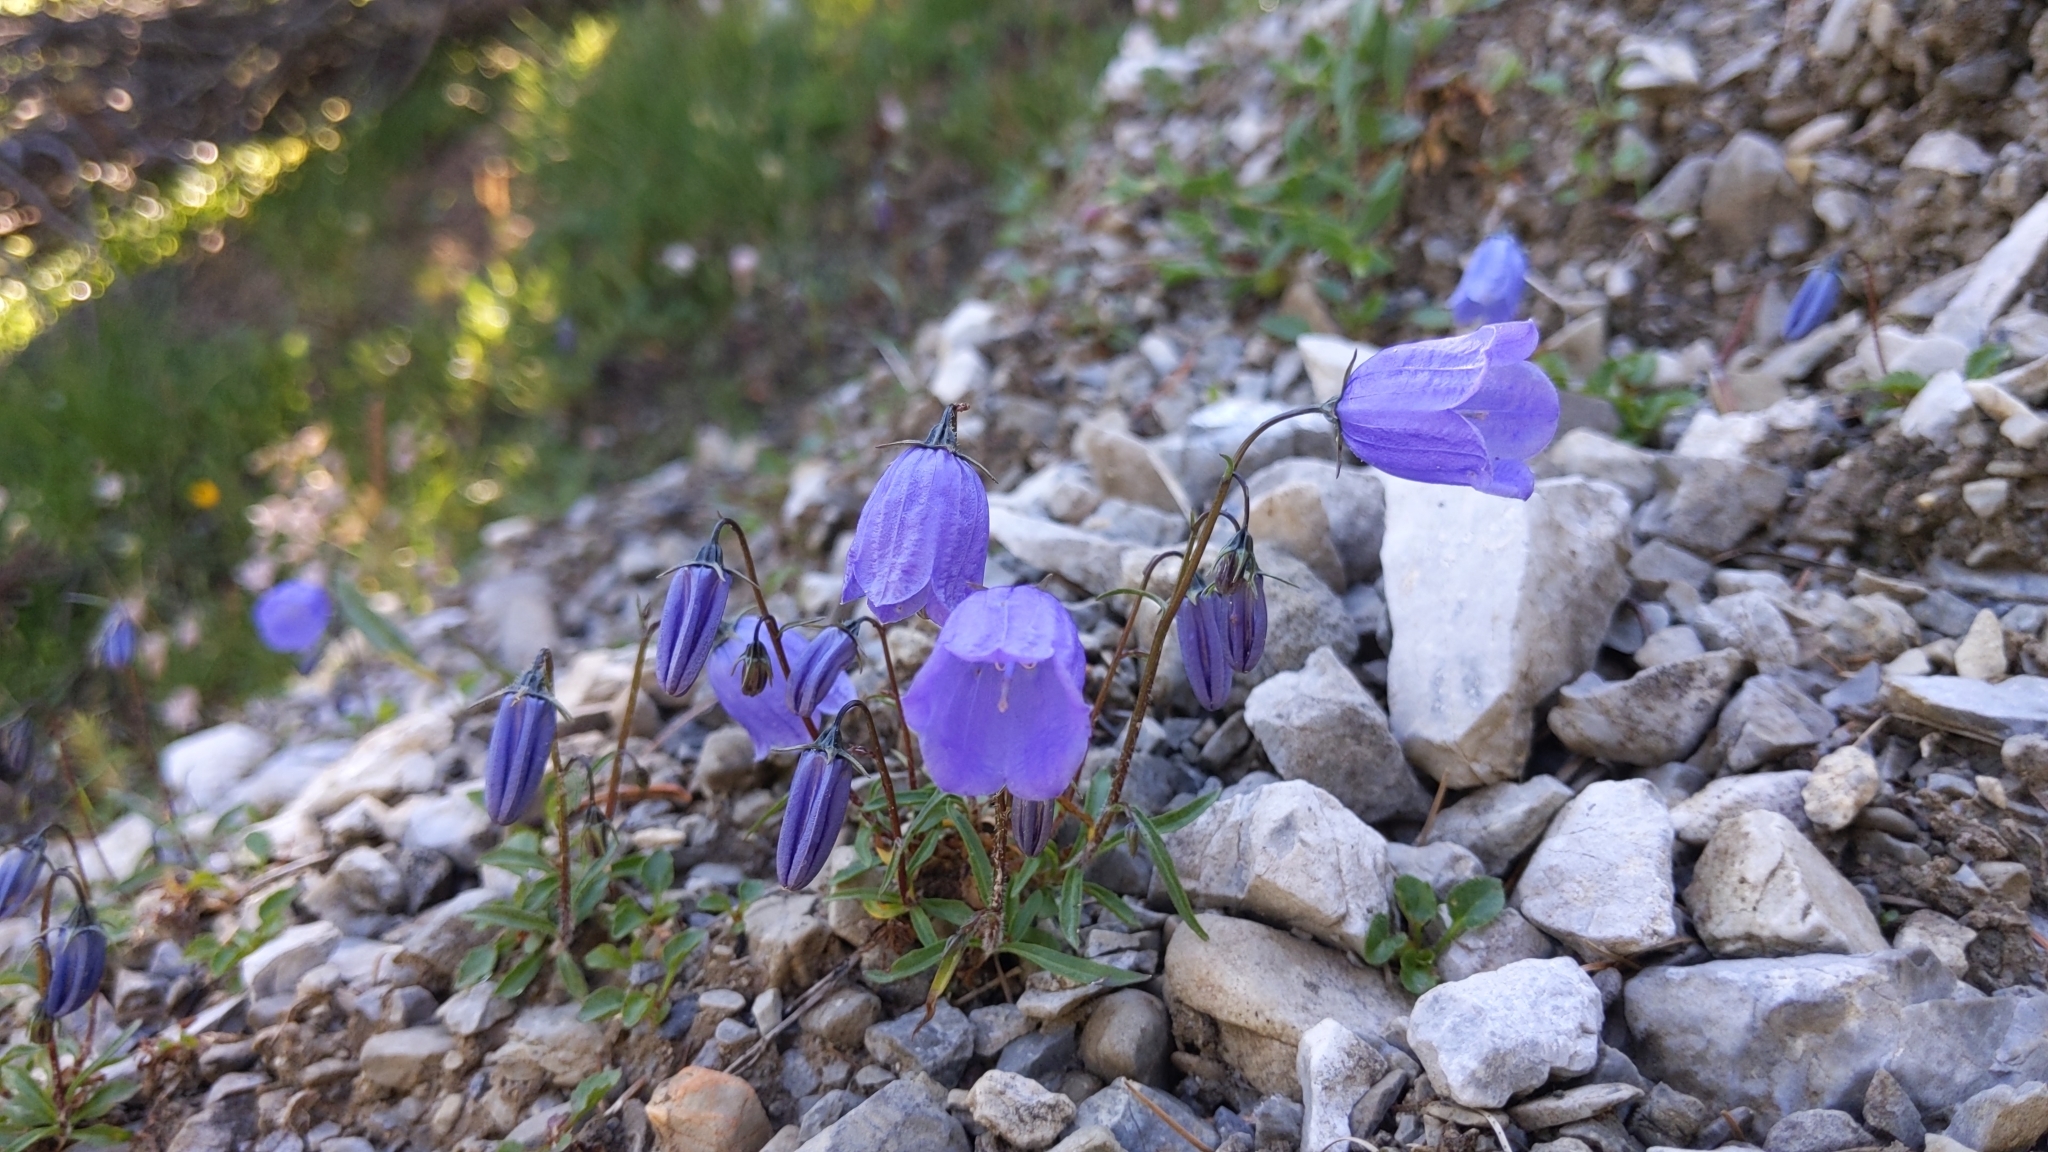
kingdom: Plantae
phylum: Tracheophyta
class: Magnoliopsida
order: Asterales
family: Campanulaceae
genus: Campanula
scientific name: Campanula cochleariifolia
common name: Fairies'-thimbles
